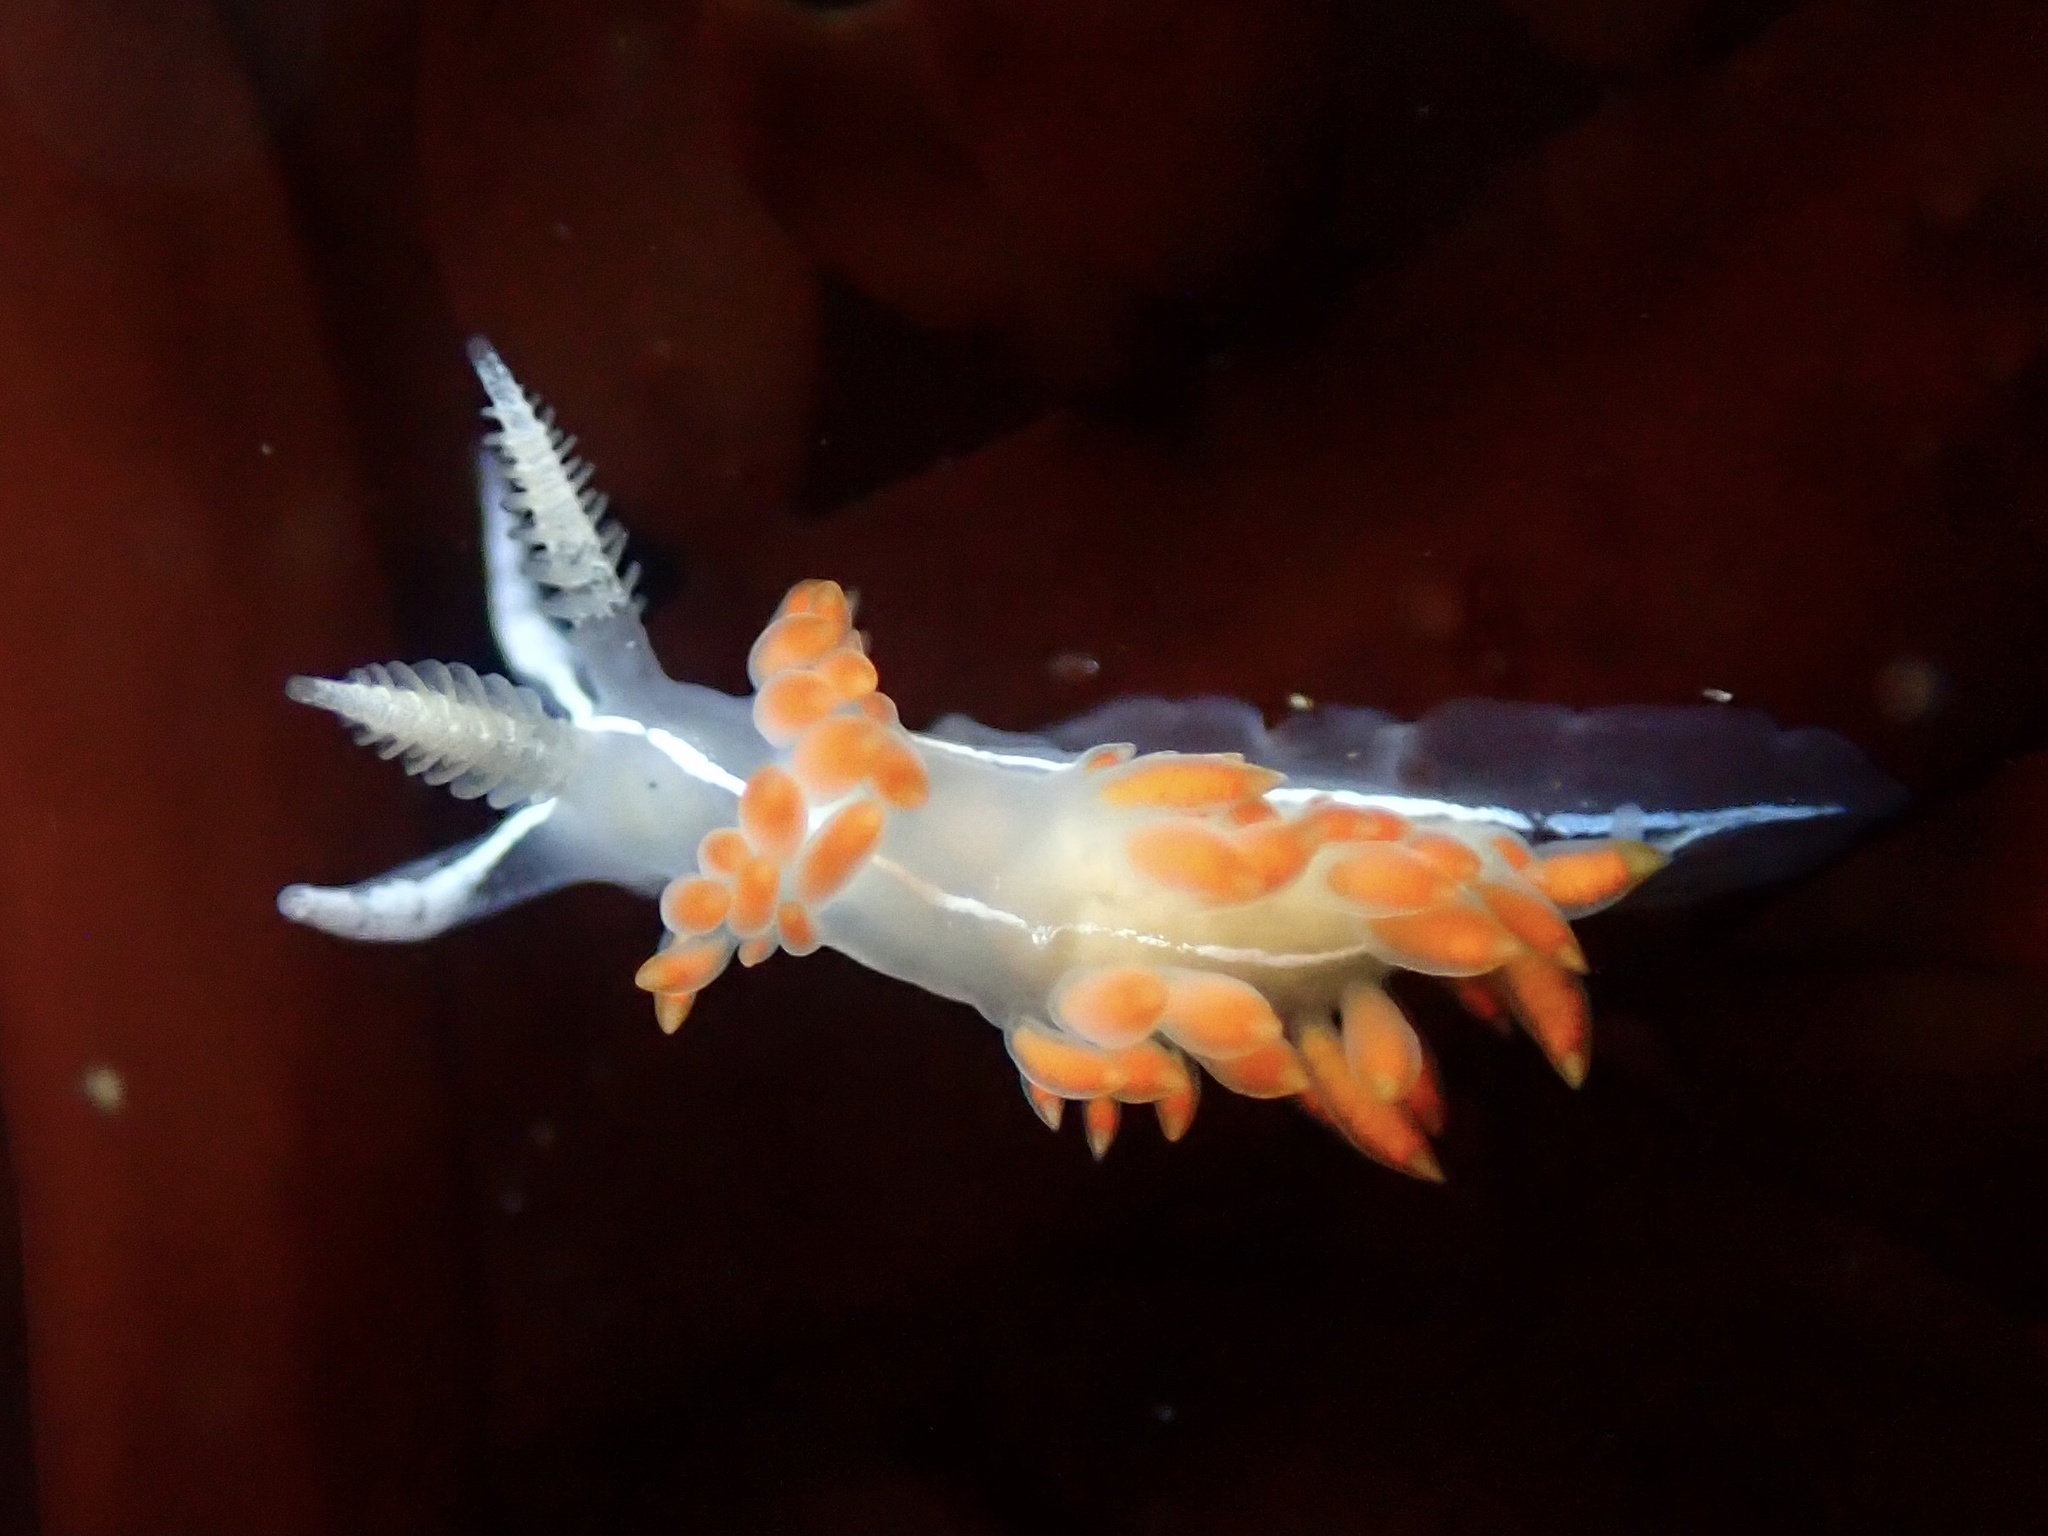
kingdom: Animalia
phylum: Mollusca
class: Gastropoda
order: Nudibranchia
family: Coryphellidae
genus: Coryphella
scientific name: Coryphella trilineata
